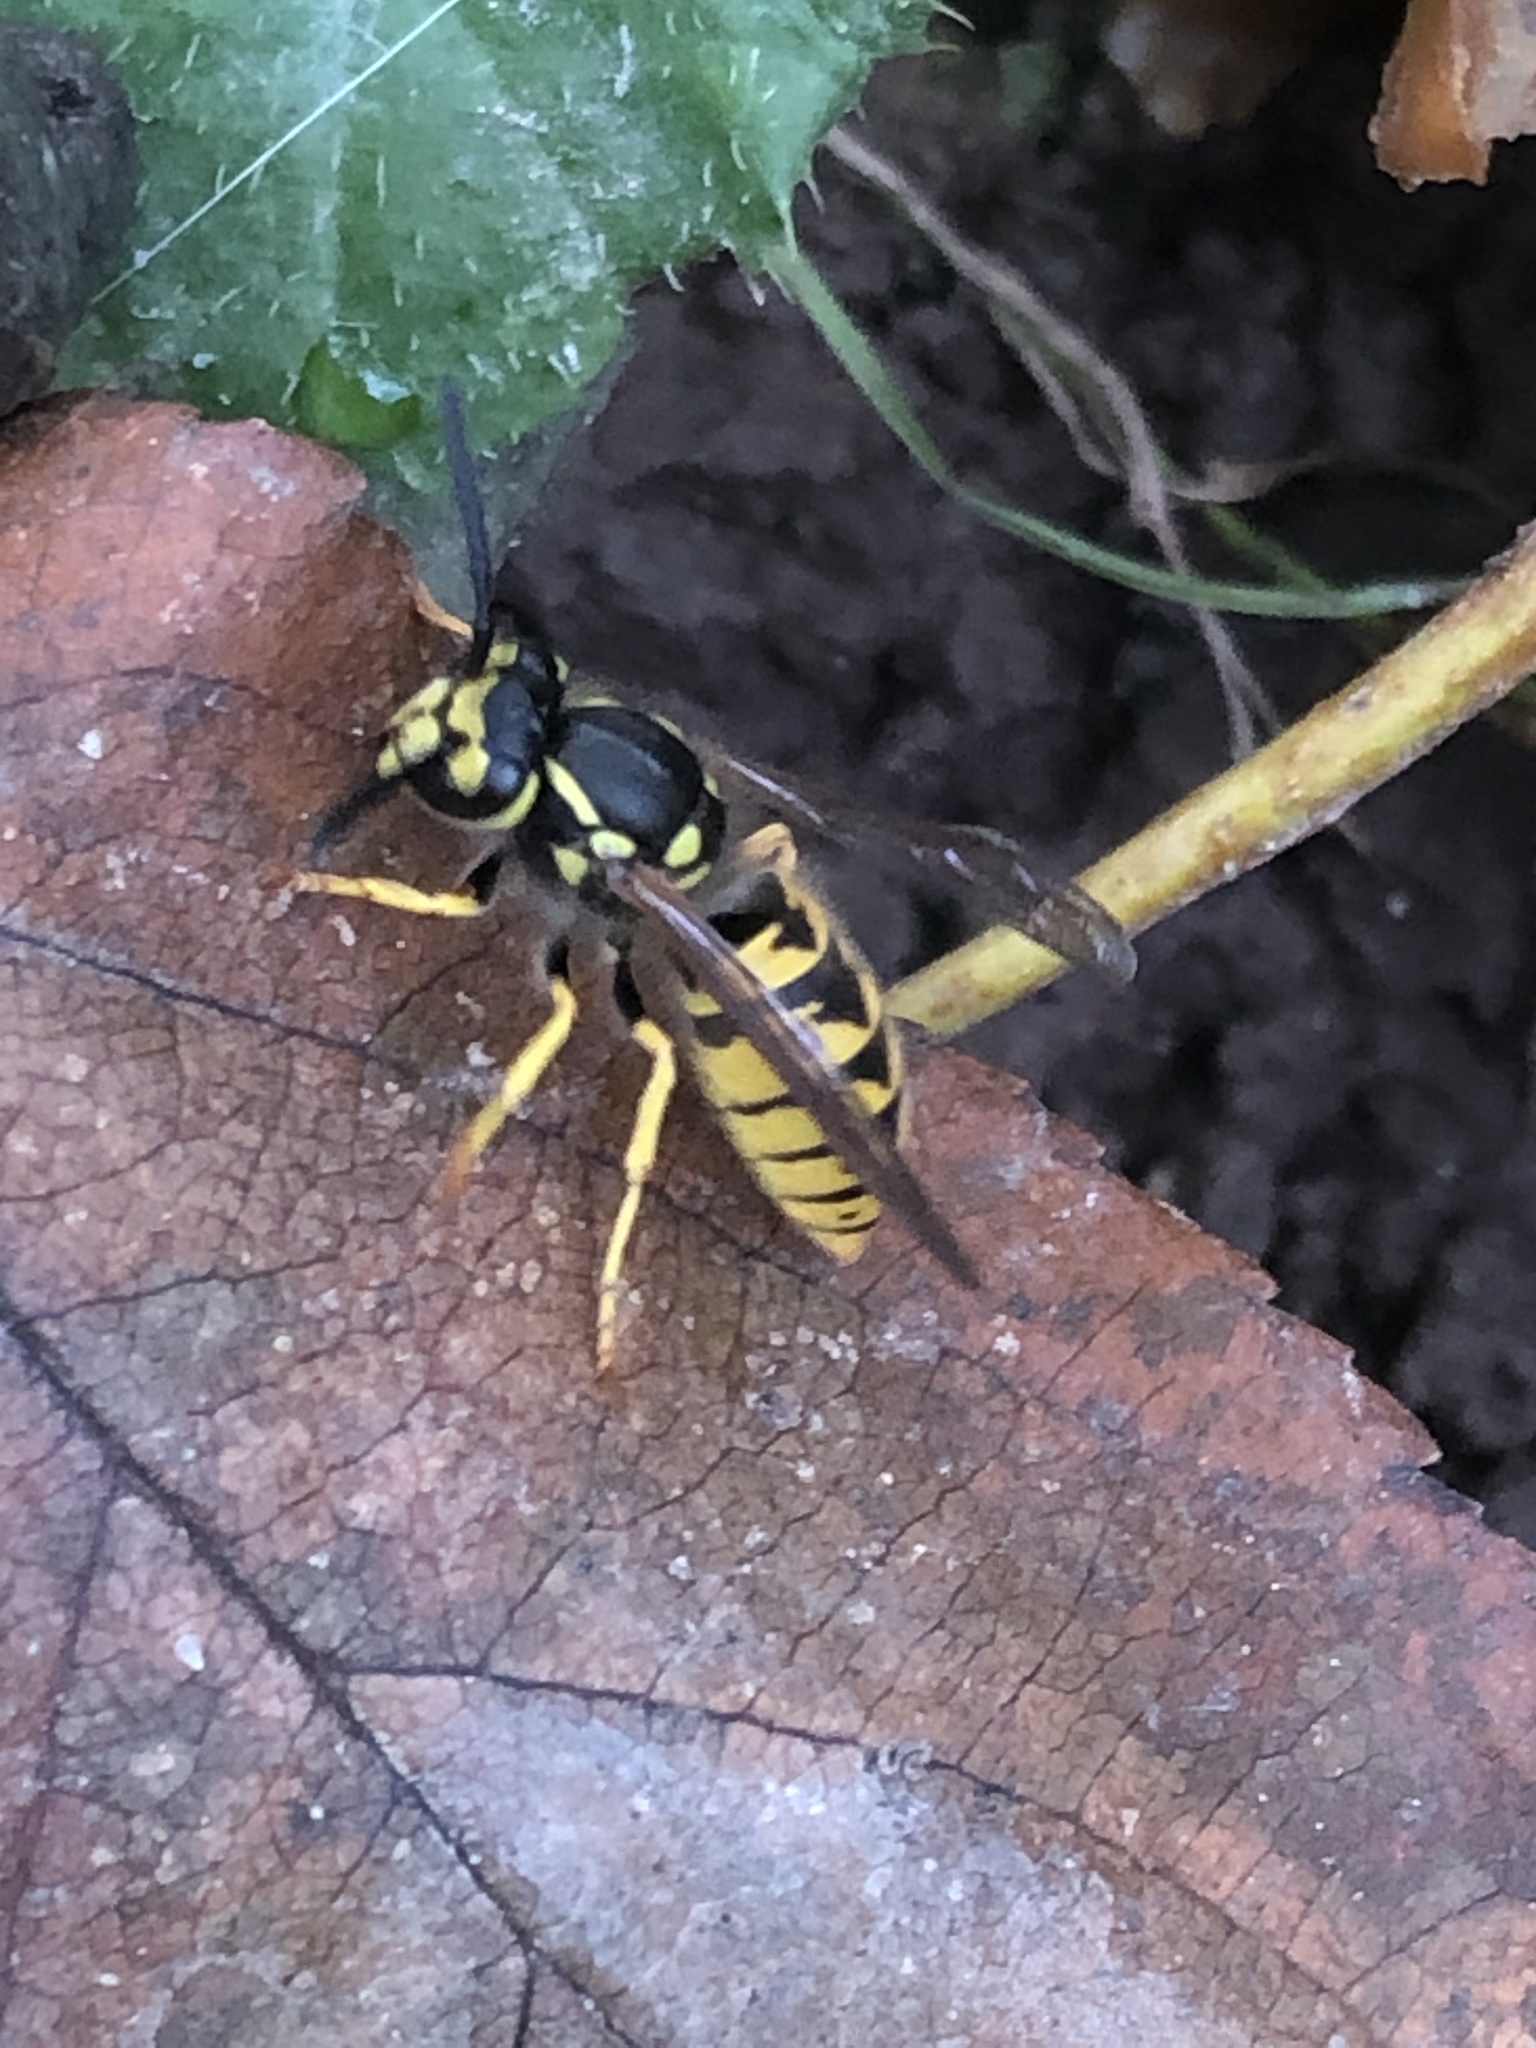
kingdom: Animalia
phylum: Arthropoda
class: Insecta
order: Hymenoptera
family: Vespidae
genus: Vespula
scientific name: Vespula germanica
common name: German wasp
